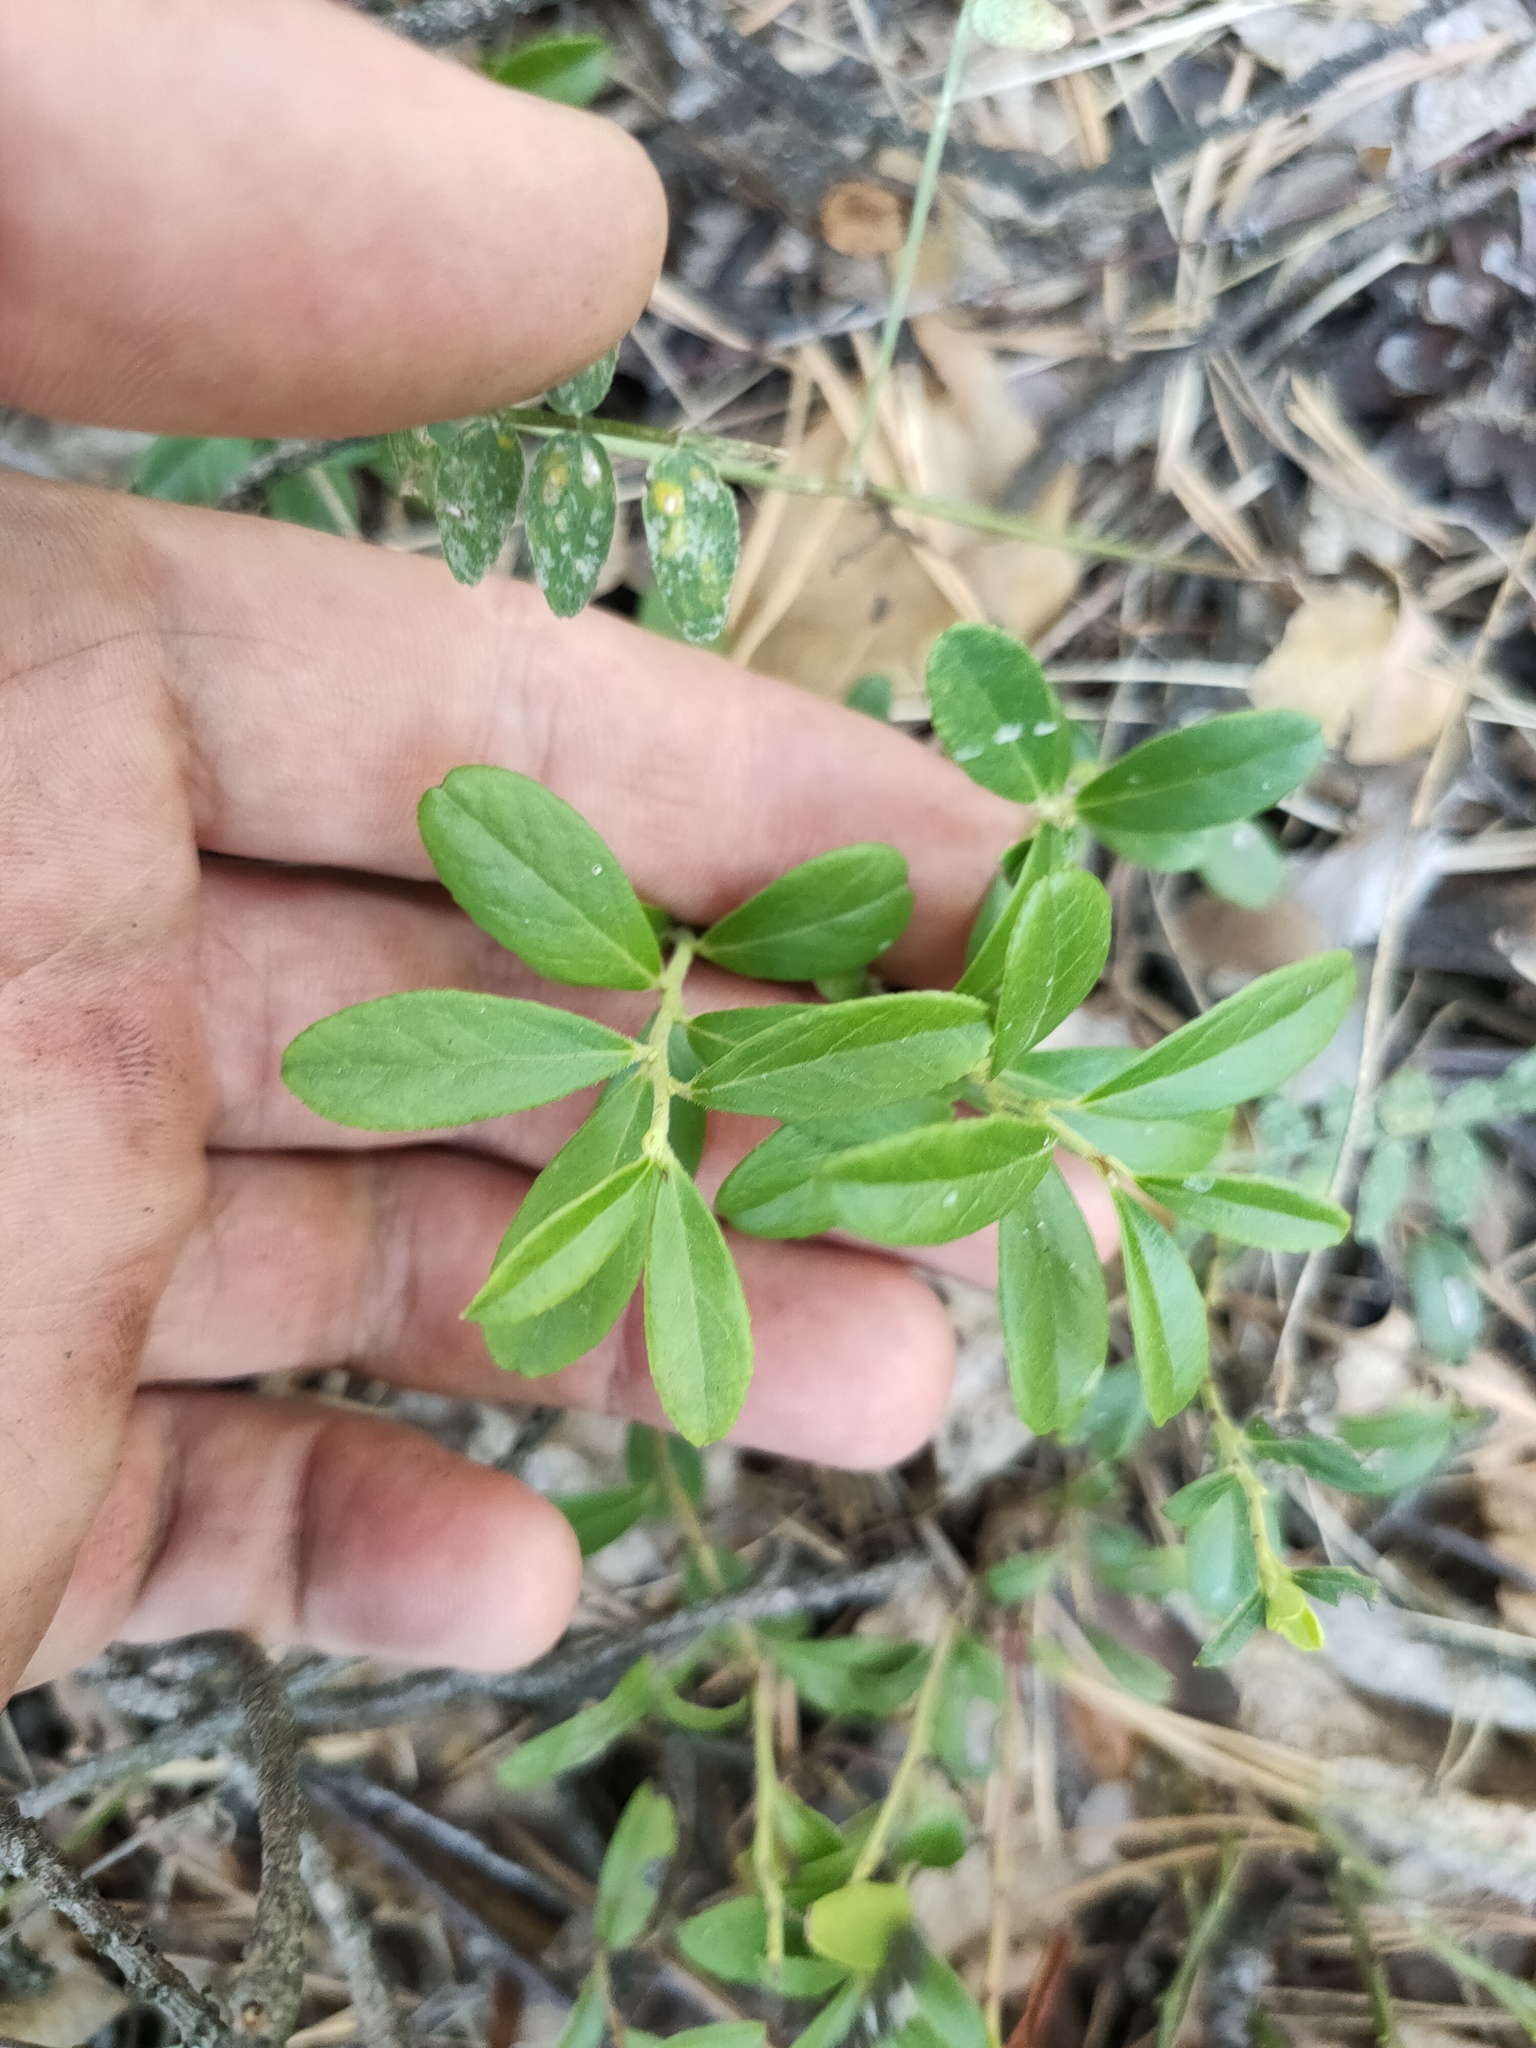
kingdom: Plantae
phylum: Tracheophyta
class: Magnoliopsida
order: Ericales
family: Ericaceae
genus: Vaccinium
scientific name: Vaccinium vitis-idaea
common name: Cowberry
